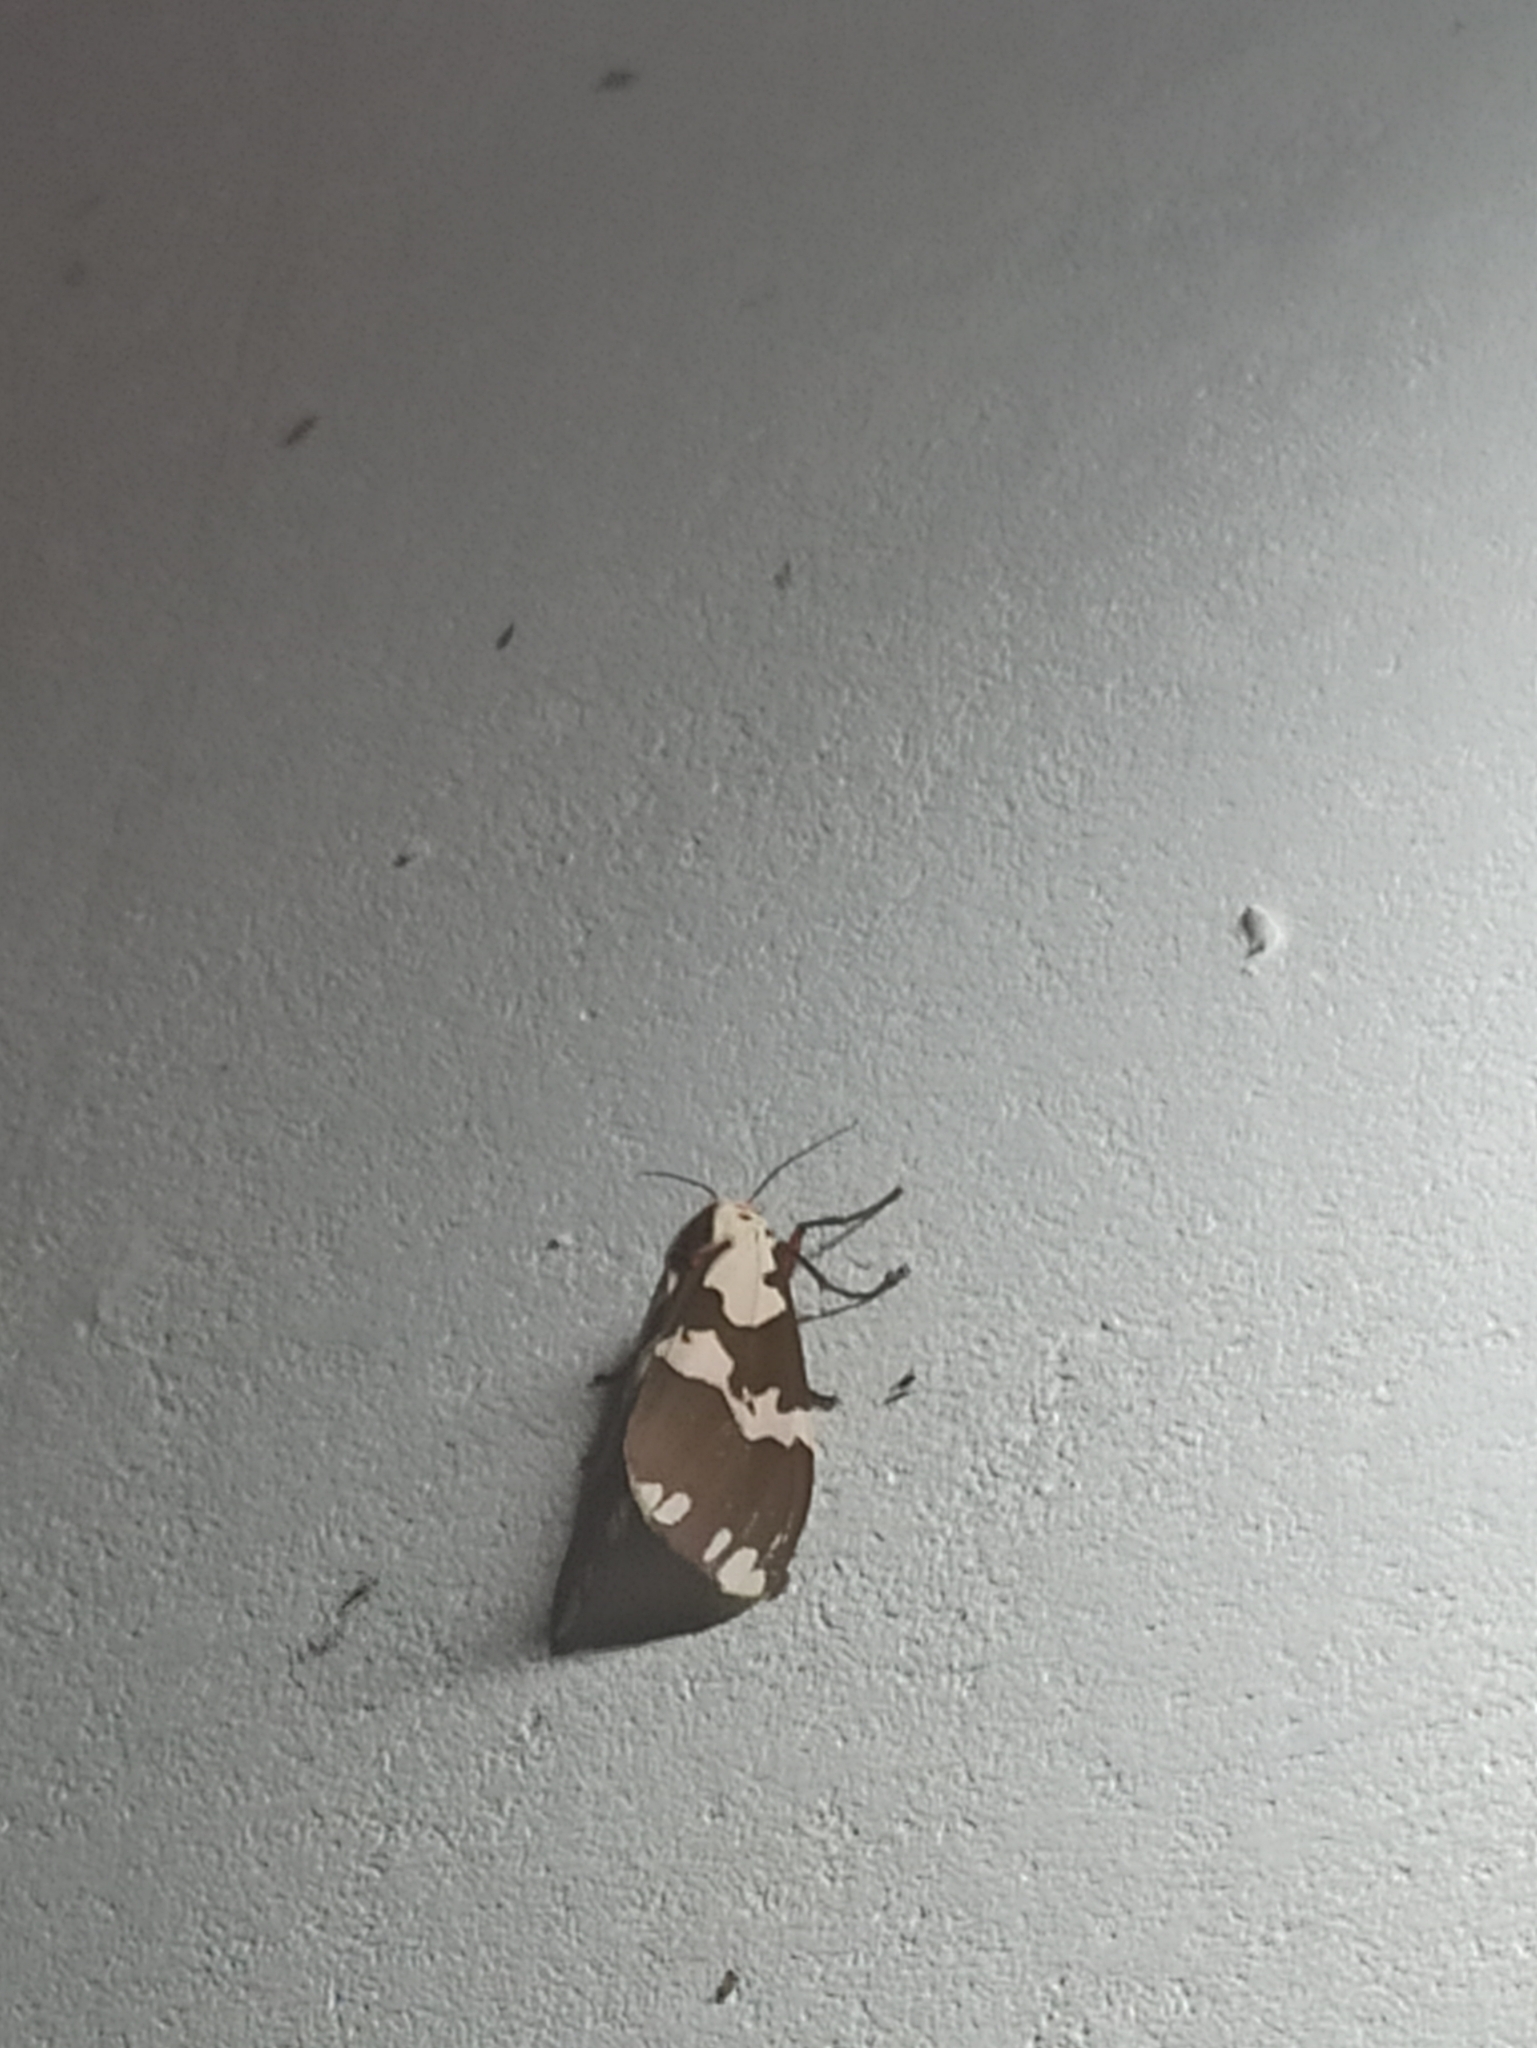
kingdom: Animalia
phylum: Arthropoda
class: Insecta
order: Lepidoptera
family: Erebidae
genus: Pericallia
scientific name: Pericallia
